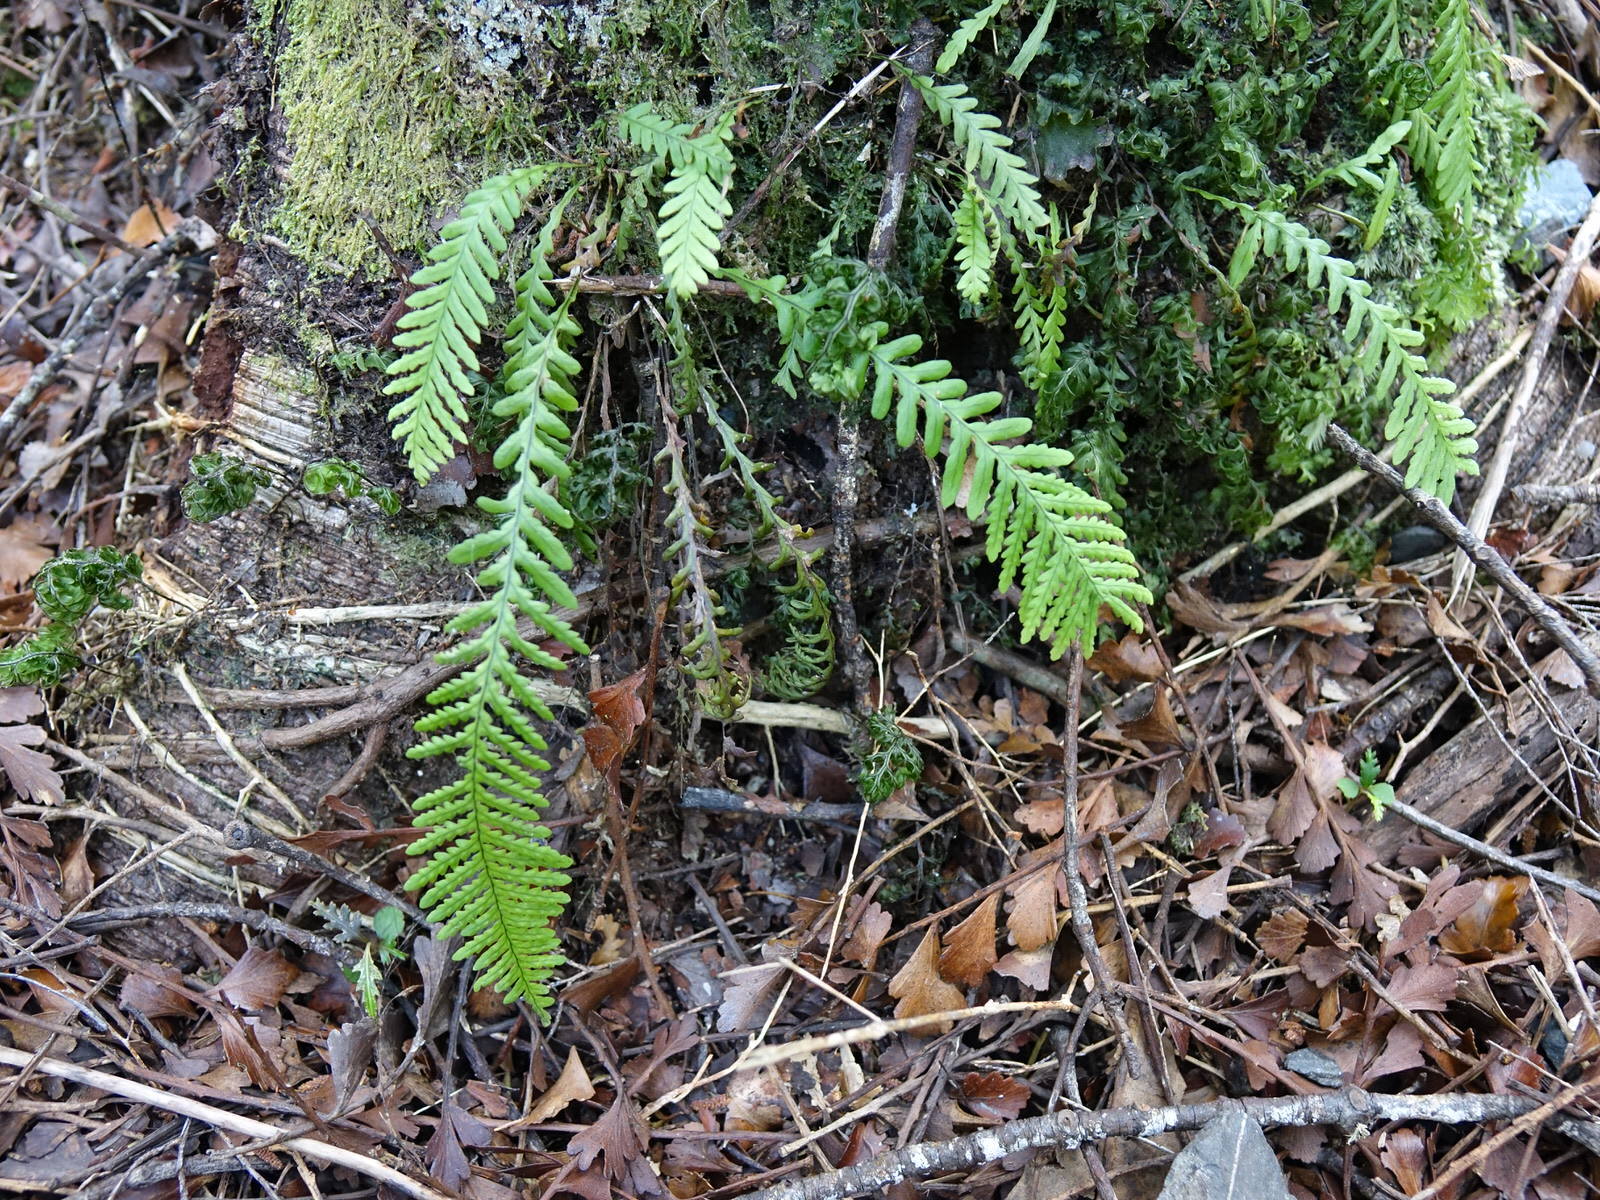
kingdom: Plantae
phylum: Tracheophyta
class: Polypodiopsida
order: Polypodiales
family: Polypodiaceae
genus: Notogrammitis
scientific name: Notogrammitis heterophylla
